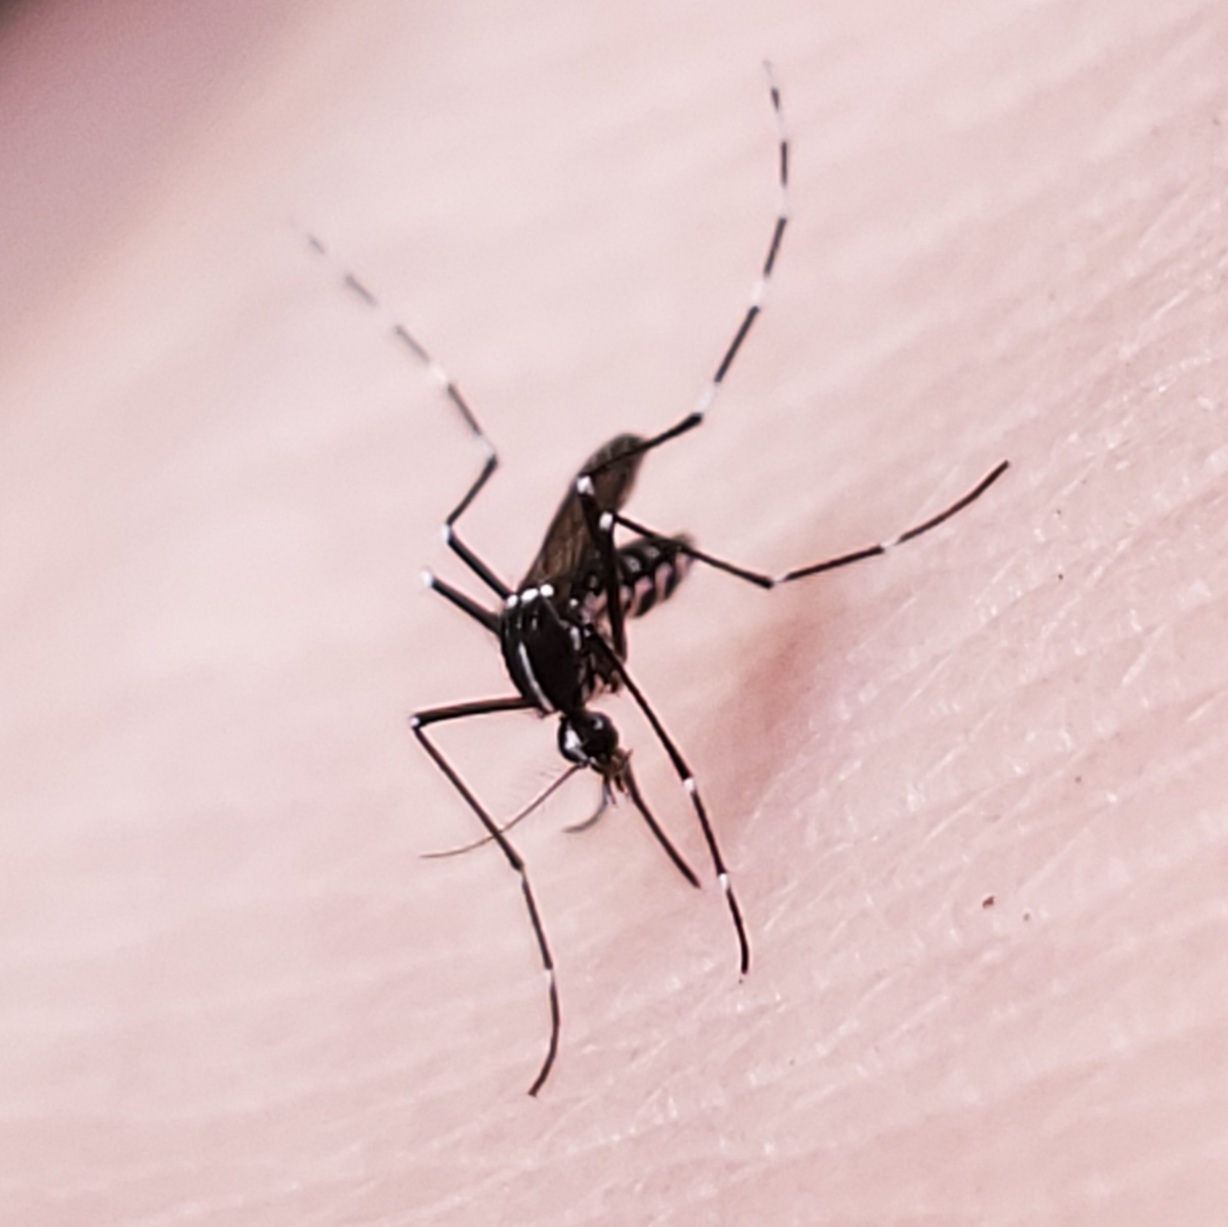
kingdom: Animalia
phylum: Arthropoda
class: Insecta
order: Diptera
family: Culicidae
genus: Aedes
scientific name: Aedes albopictus
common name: Tiger mosquito
